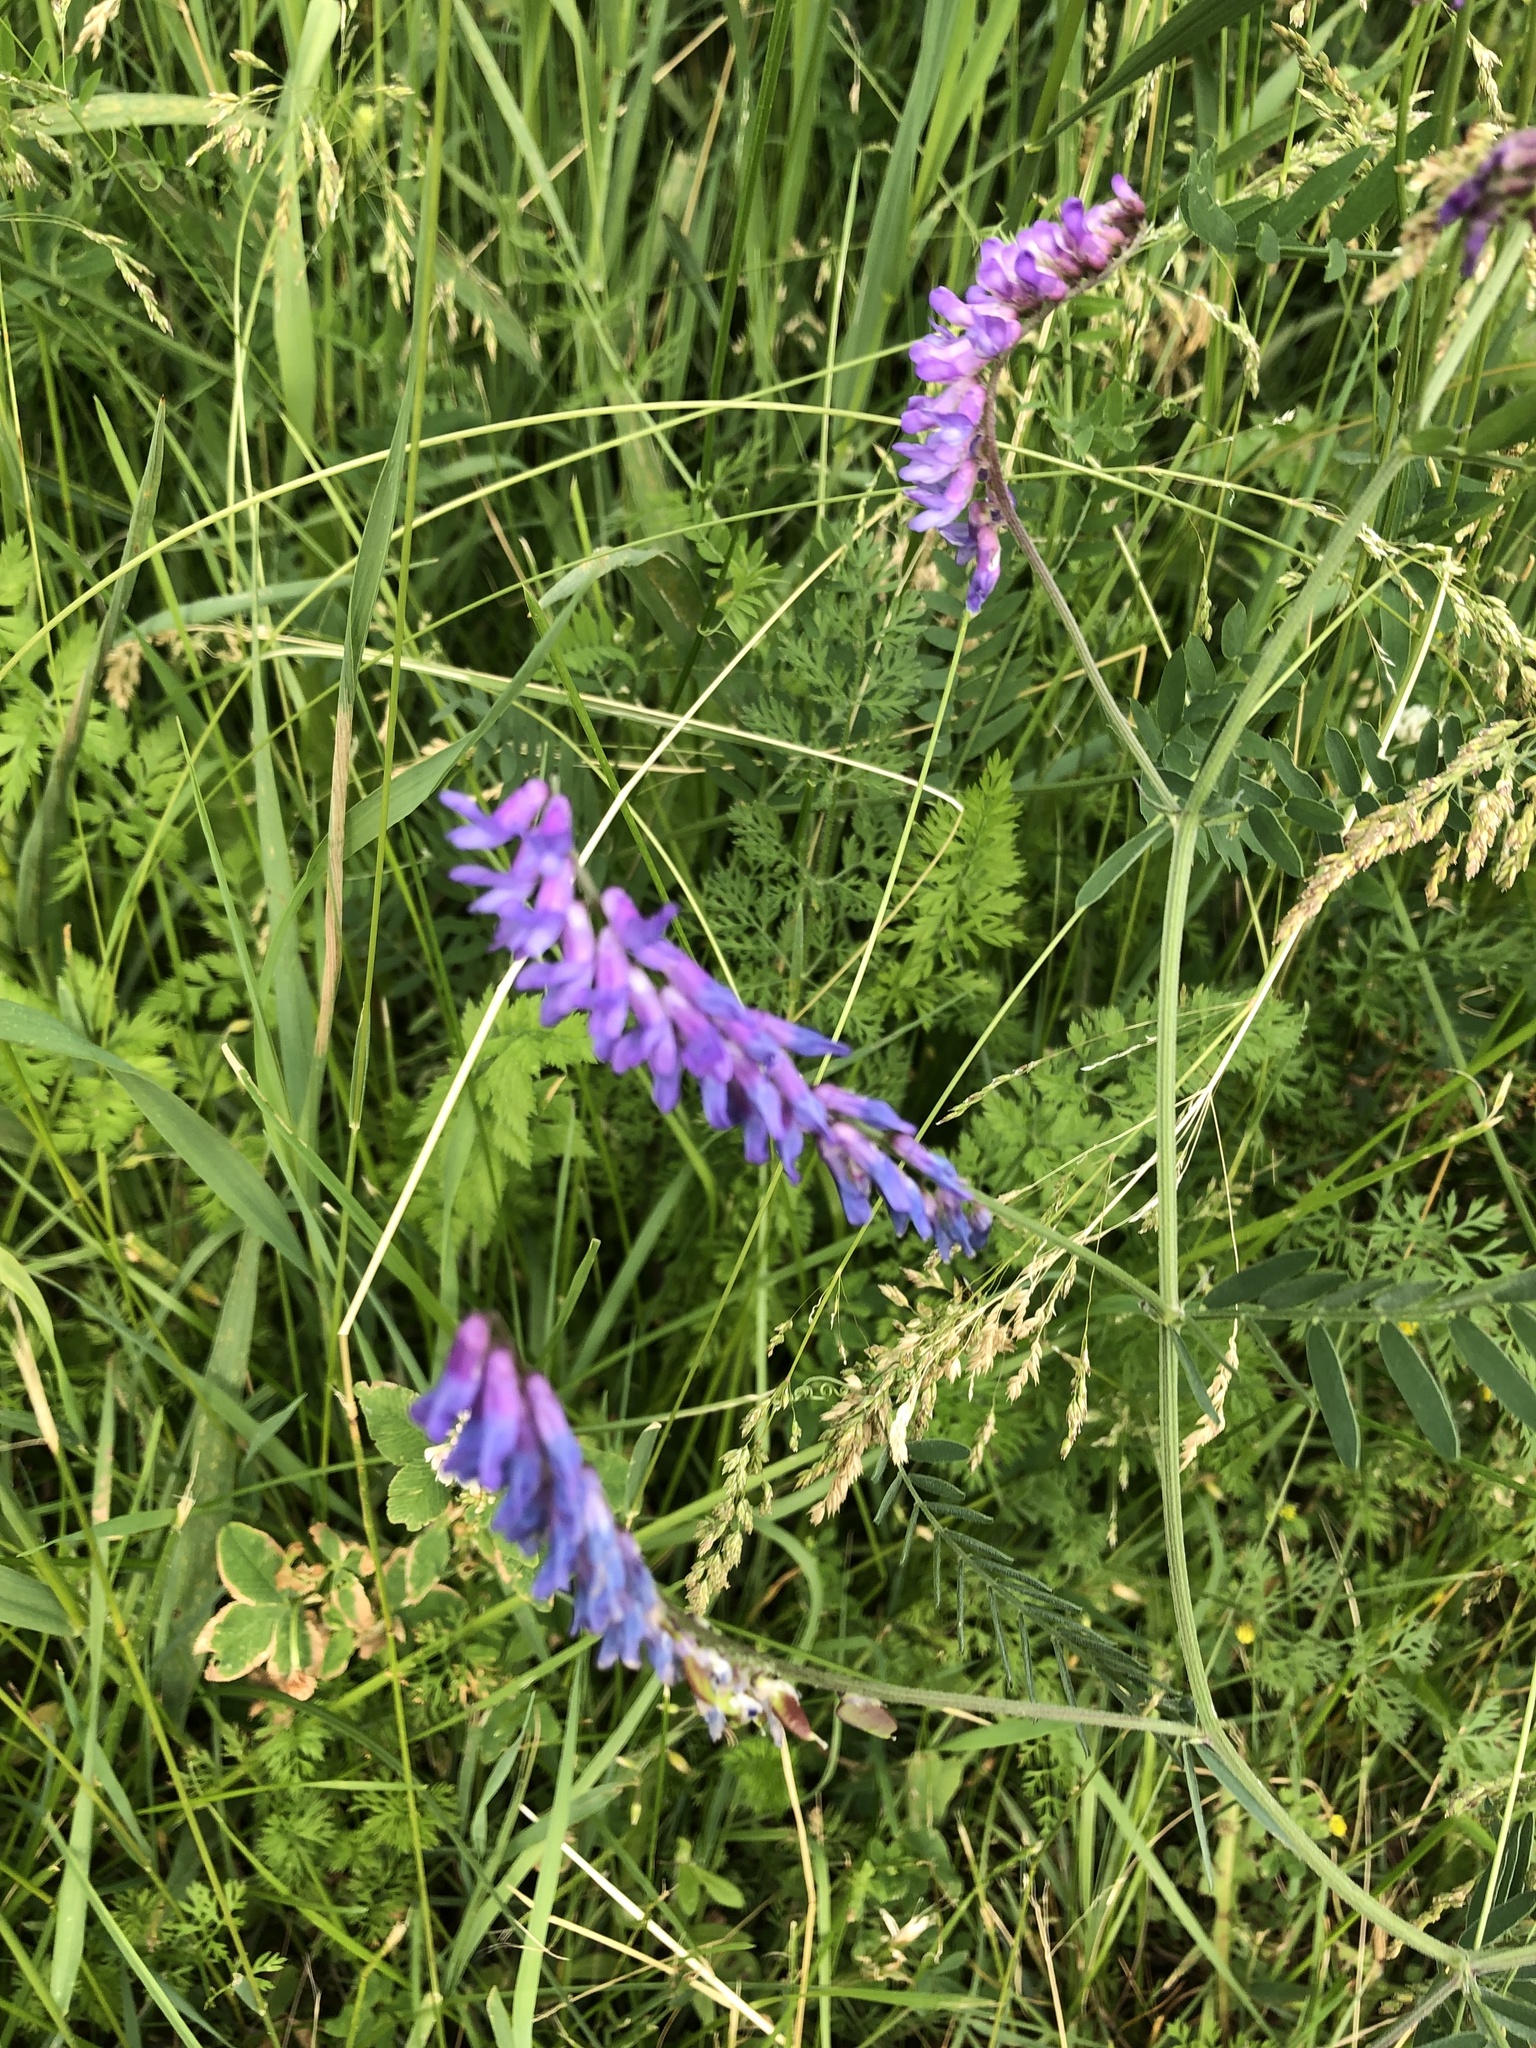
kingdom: Plantae
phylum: Tracheophyta
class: Magnoliopsida
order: Fabales
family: Fabaceae
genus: Vicia
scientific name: Vicia cracca
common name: Bird vetch
